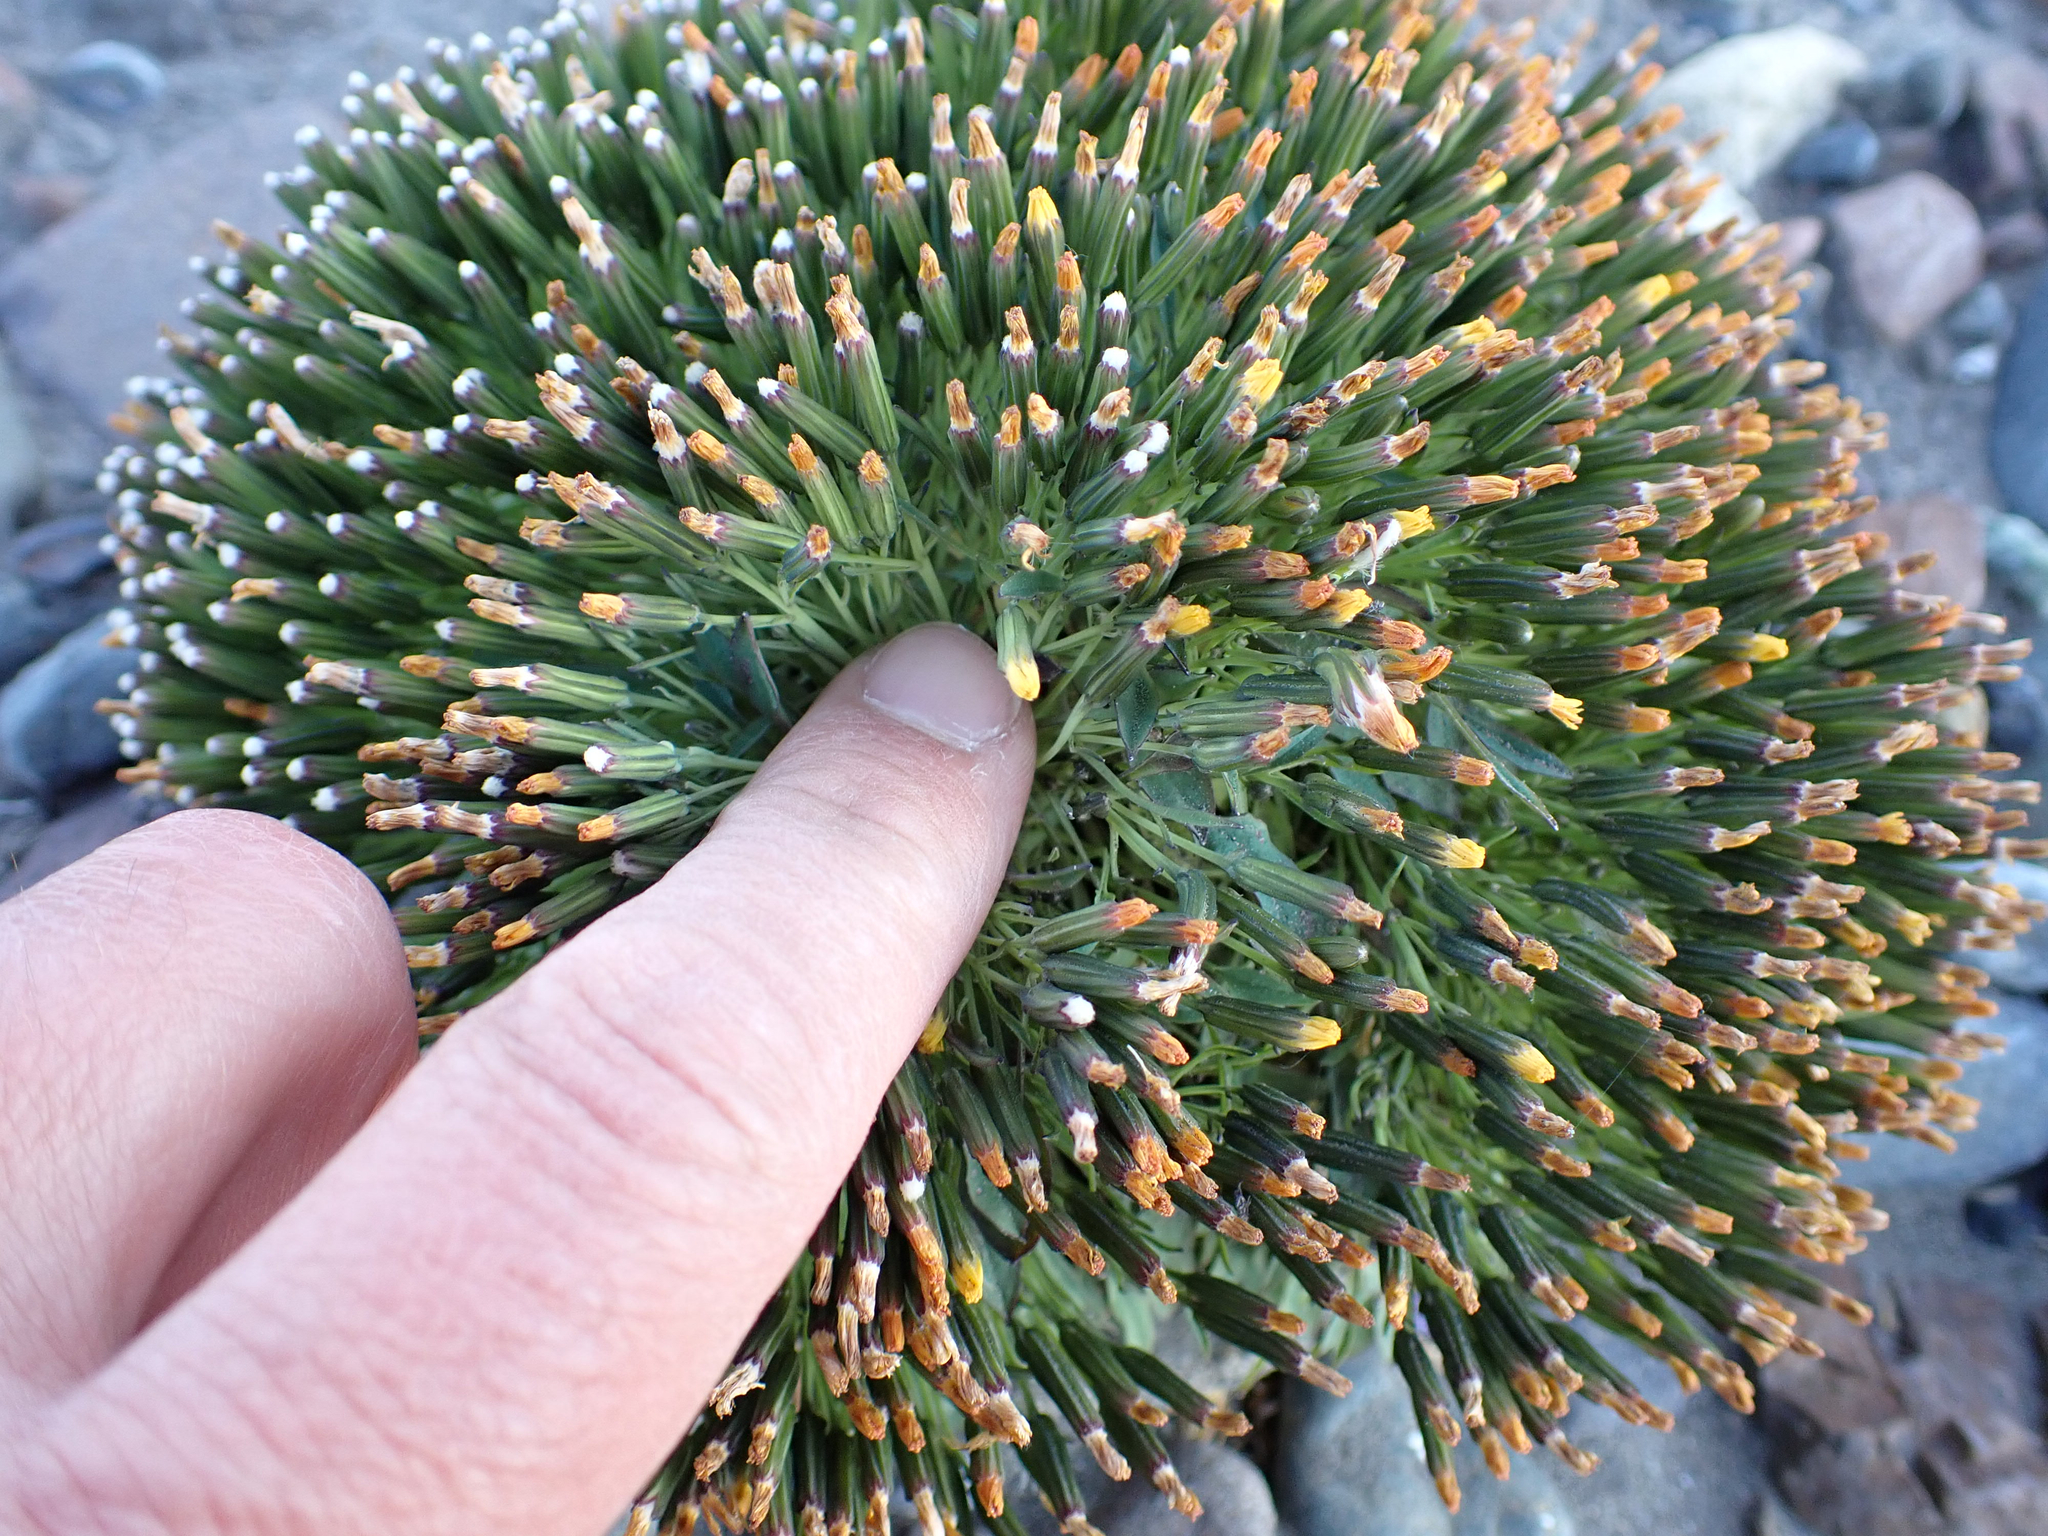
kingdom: Plantae
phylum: Tracheophyta
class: Magnoliopsida
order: Asterales
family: Asteraceae
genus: Askellia
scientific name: Askellia pygmaea
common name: Dwarf alpine hawksbeard
